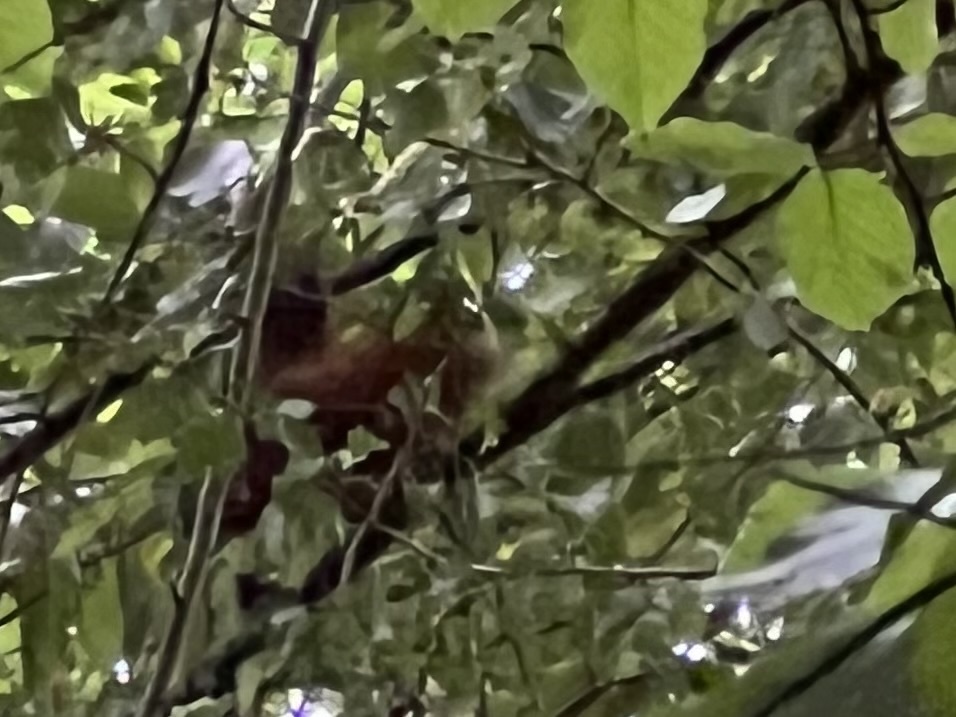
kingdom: Animalia
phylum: Chordata
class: Mammalia
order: Rodentia
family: Sciuridae
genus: Sciurus
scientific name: Sciurus vulgaris
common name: Eurasian red squirrel
